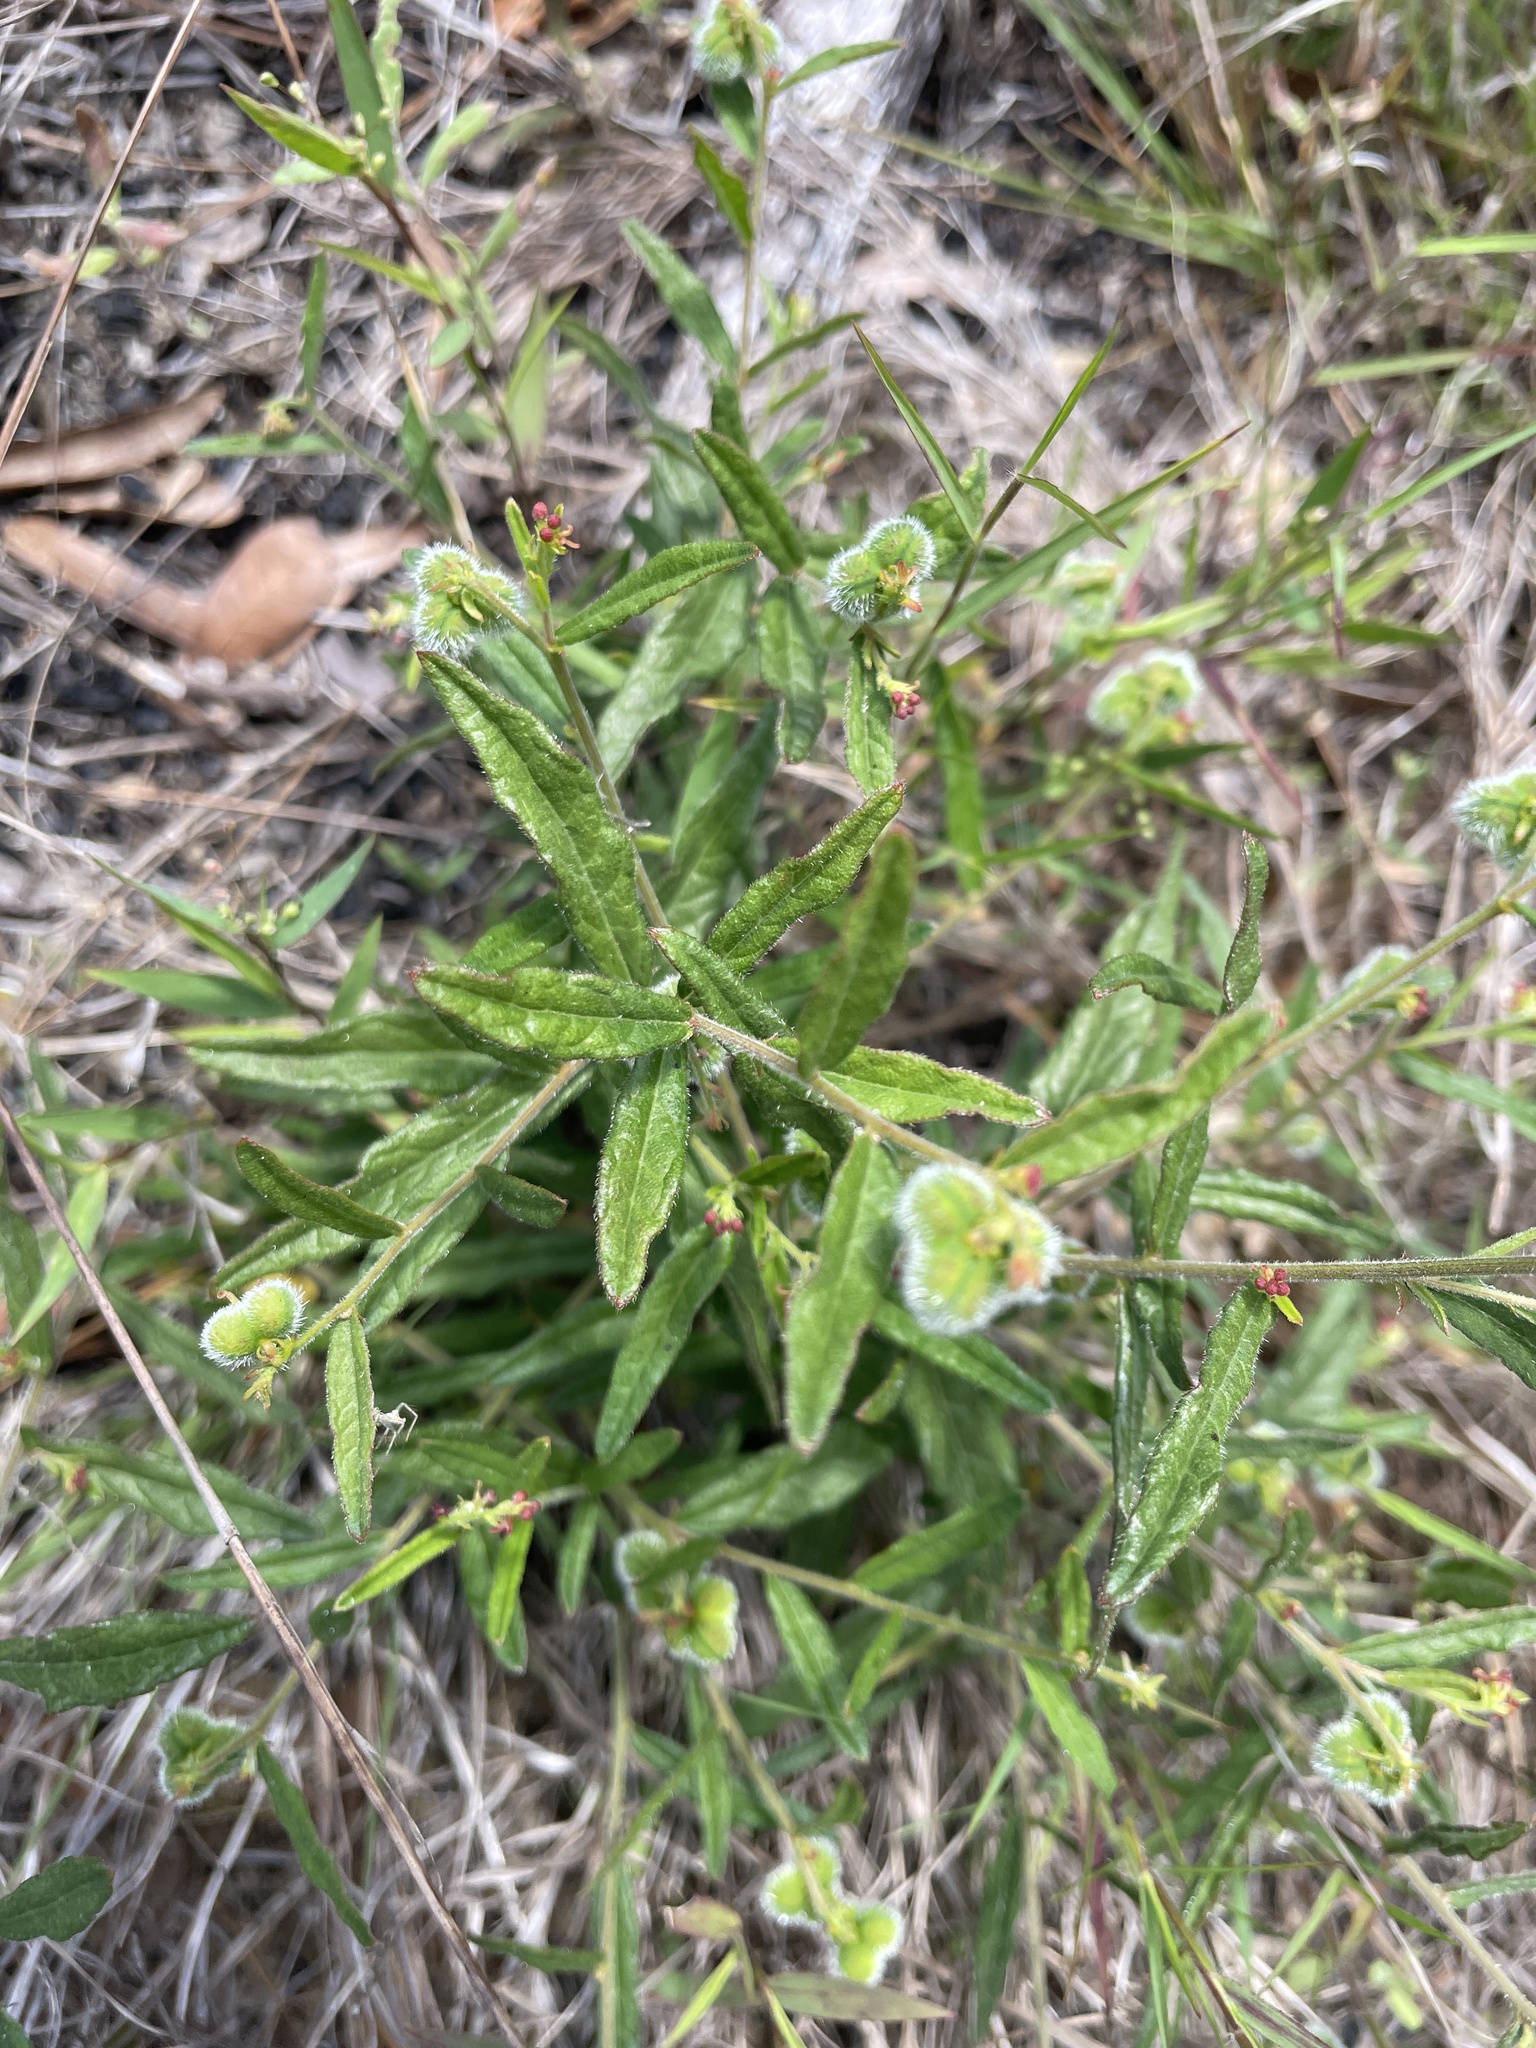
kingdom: Plantae
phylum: Tracheophyta
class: Magnoliopsida
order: Malpighiales
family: Euphorbiaceae
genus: Tragia
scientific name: Tragia urens
